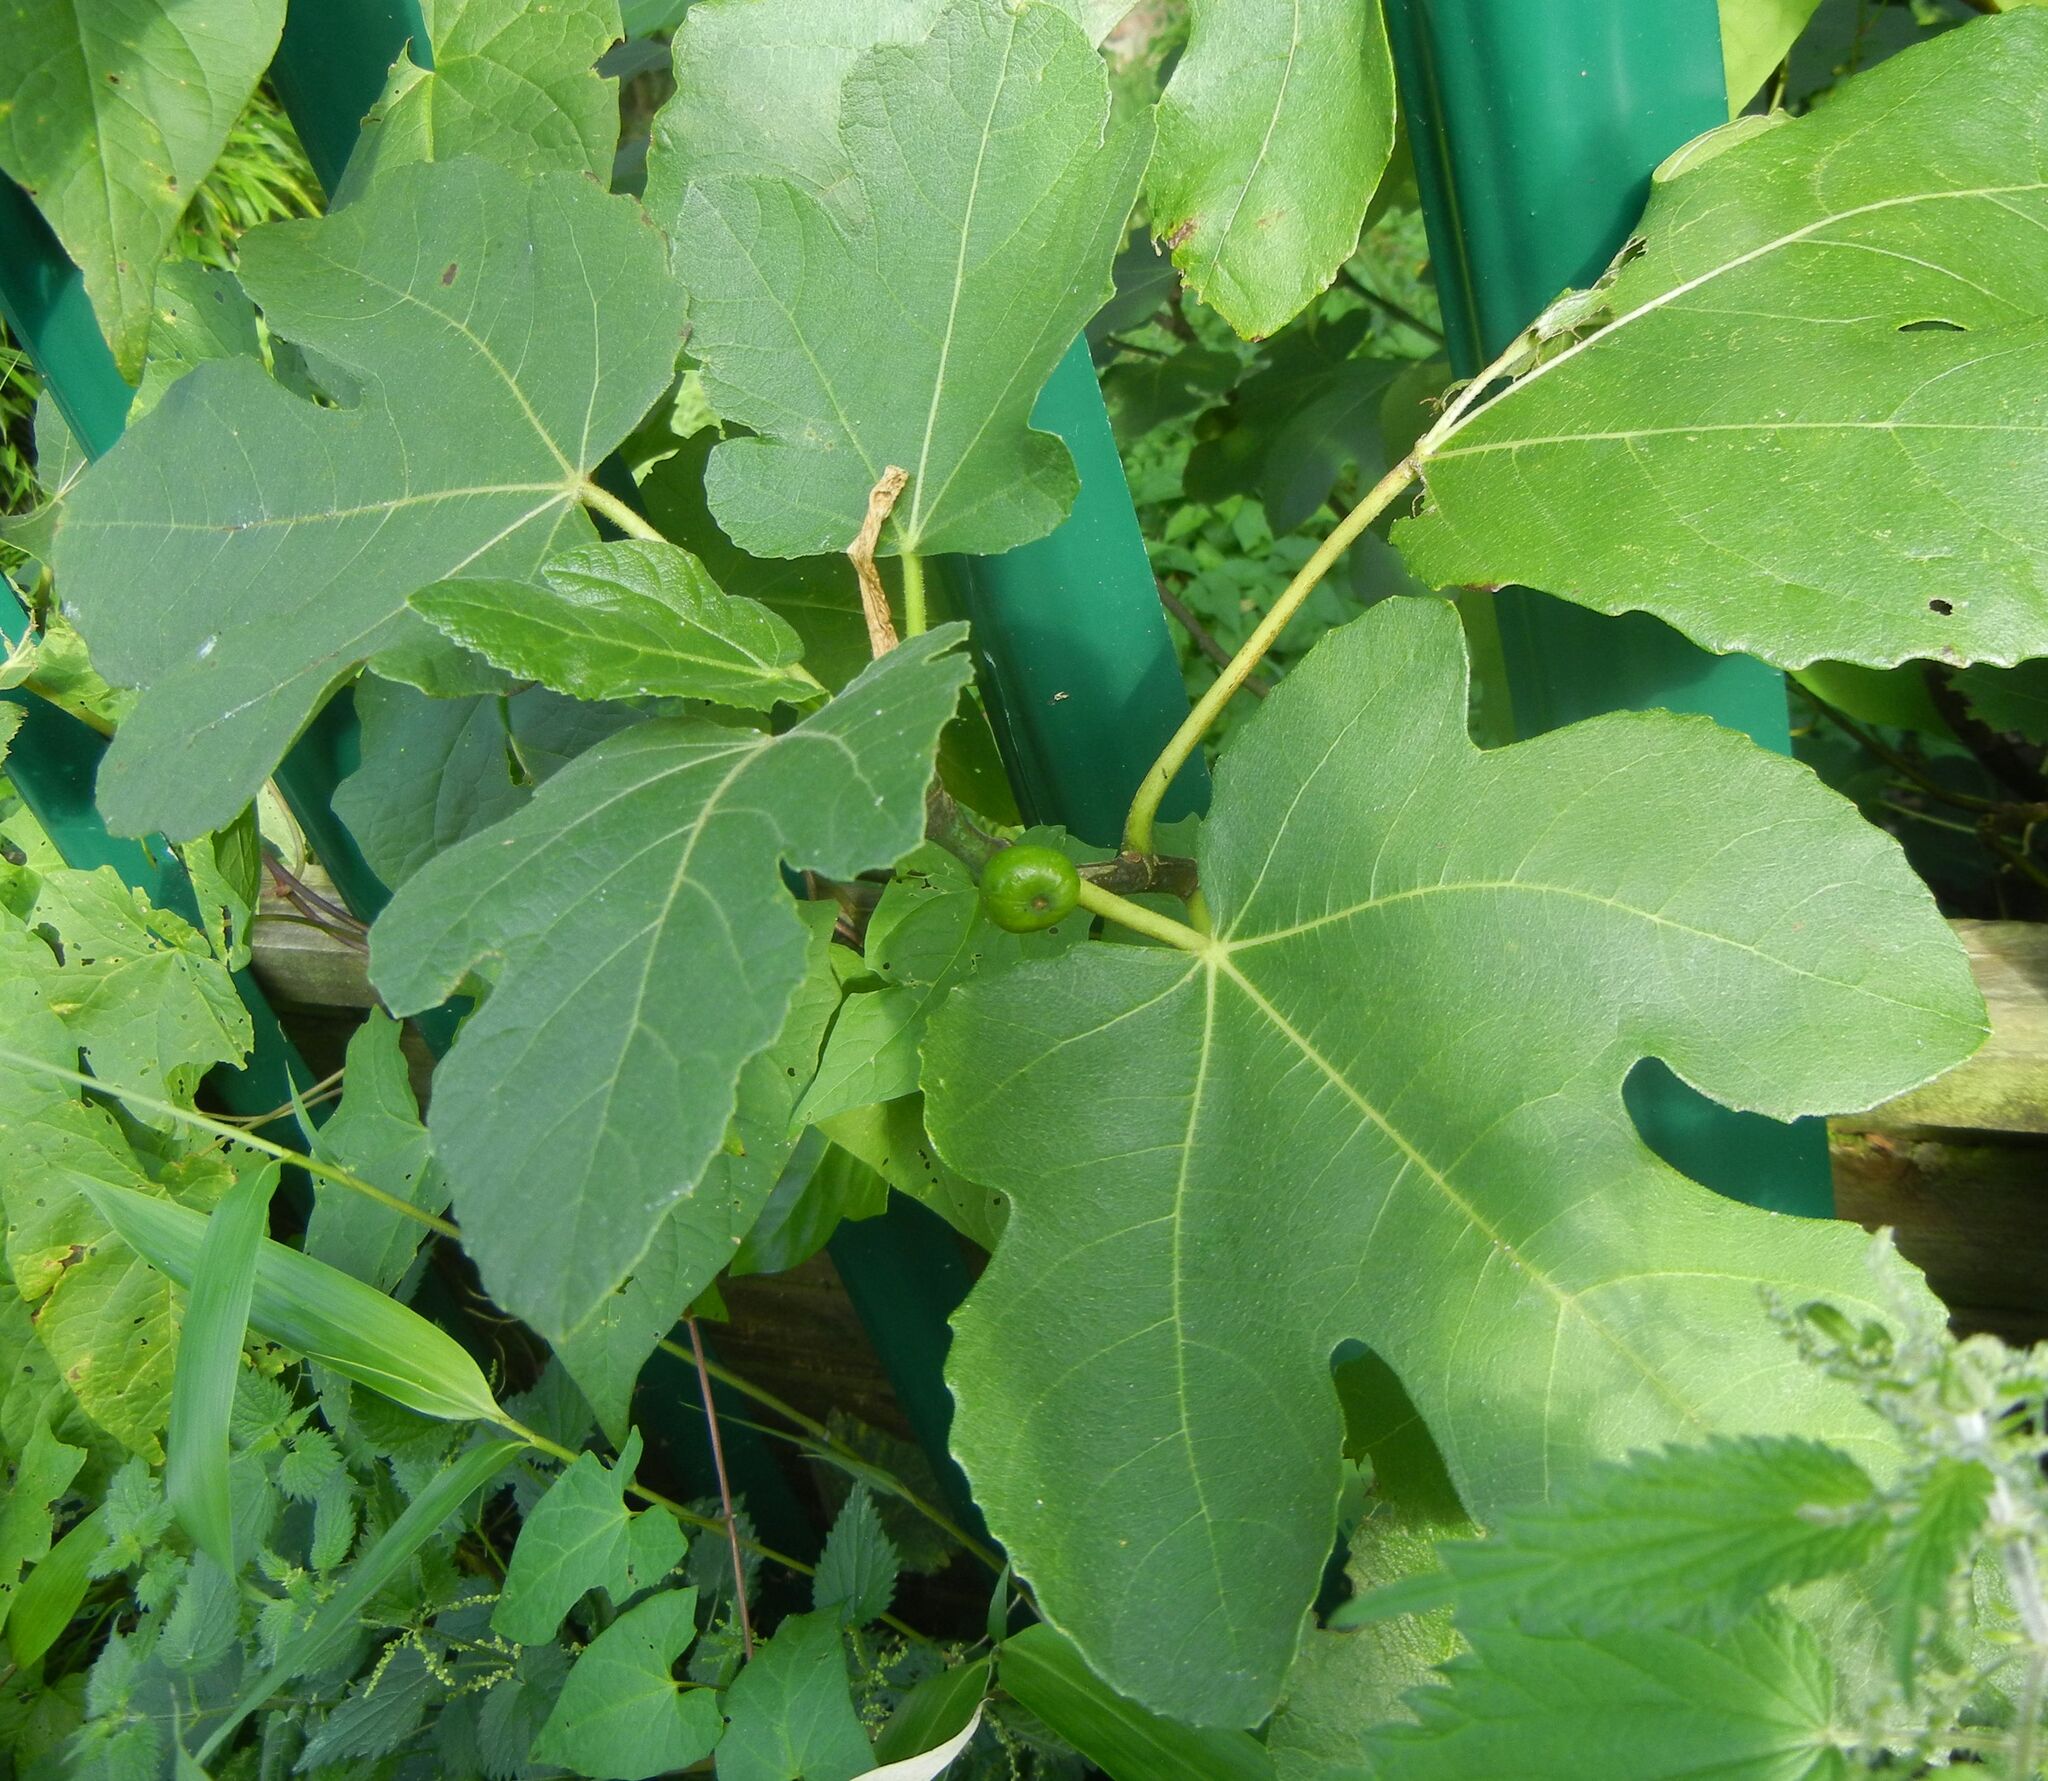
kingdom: Plantae
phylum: Tracheophyta
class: Magnoliopsida
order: Rosales
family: Moraceae
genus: Ficus
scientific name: Ficus carica
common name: Fig
